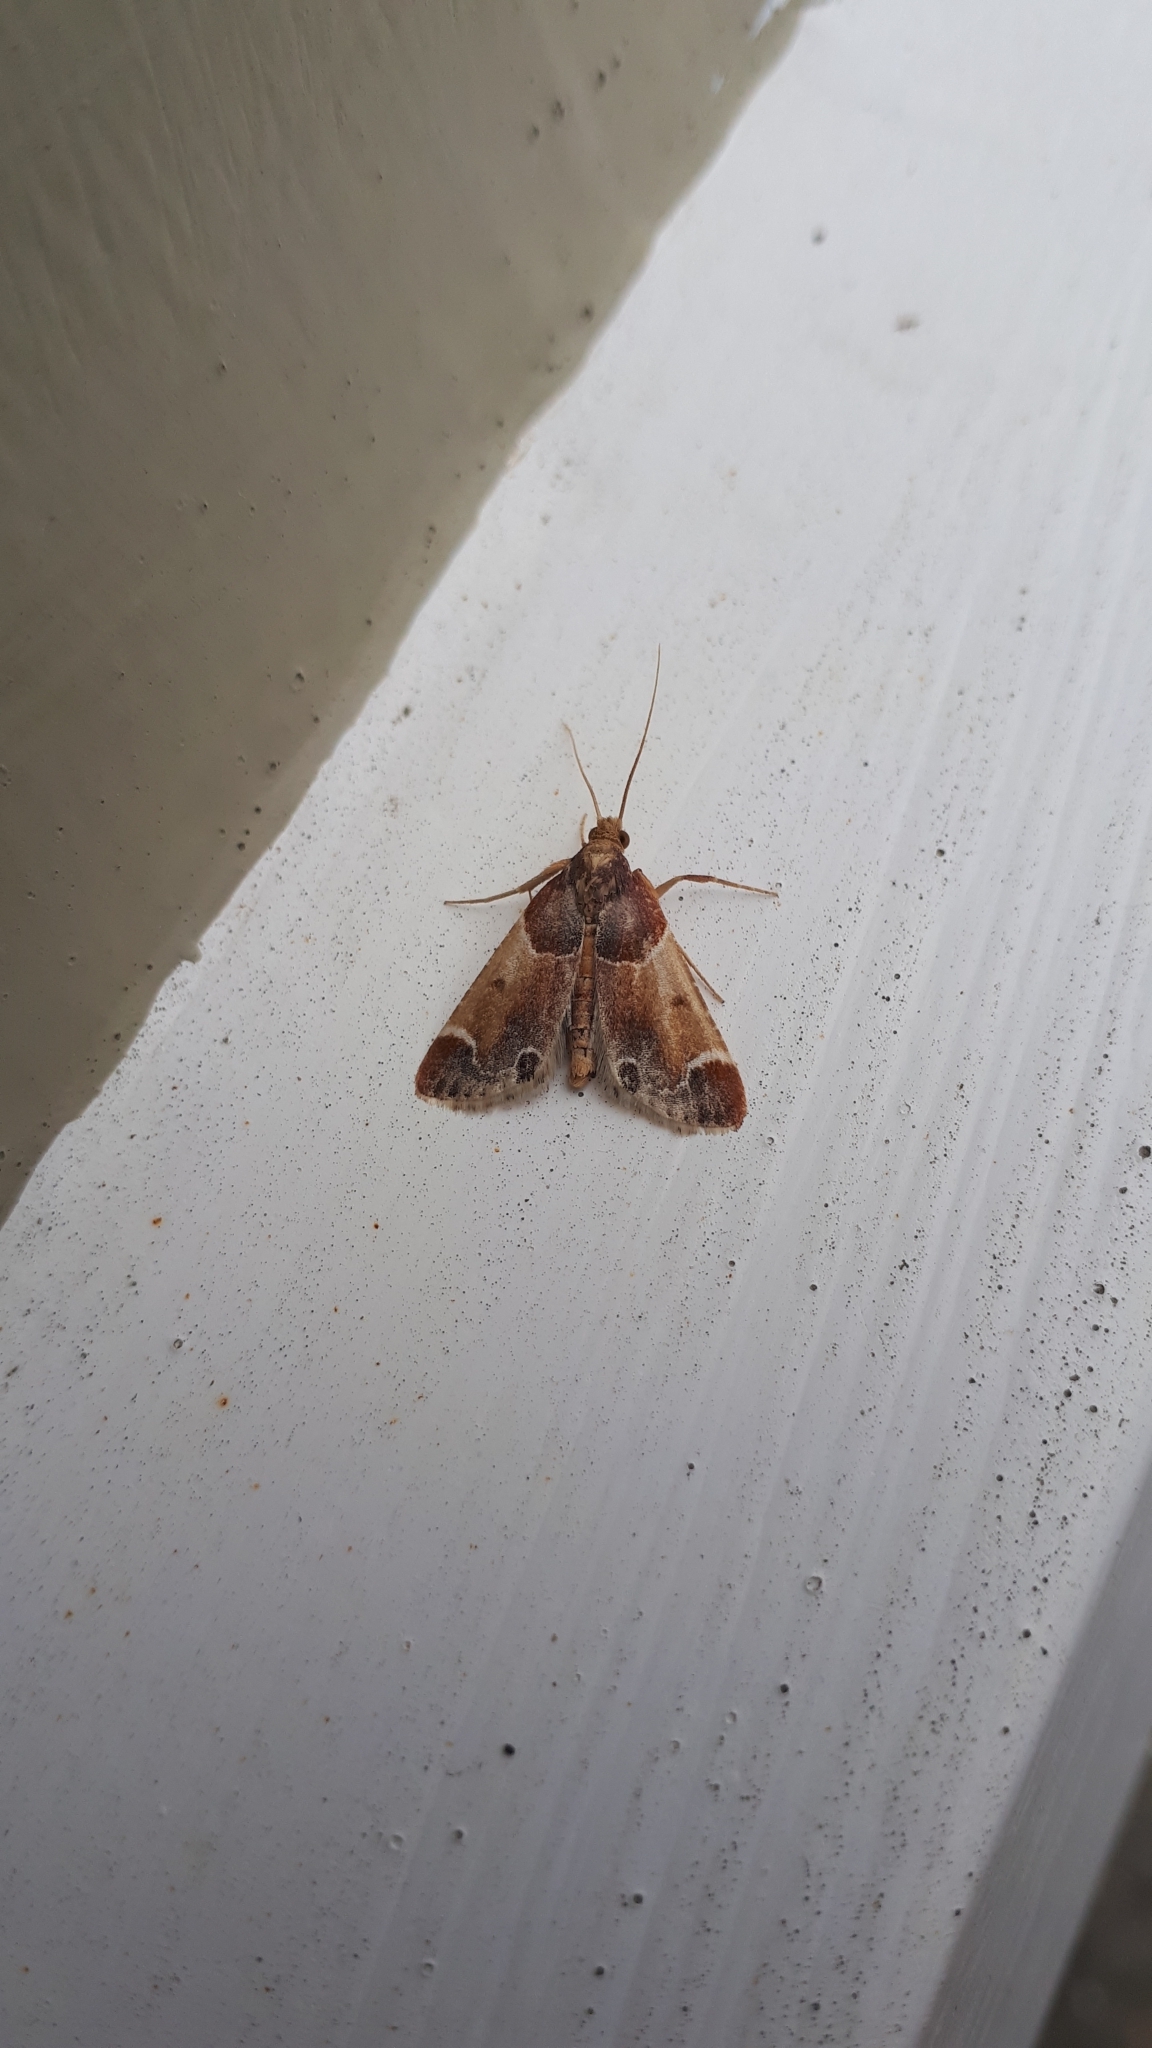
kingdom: Animalia
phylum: Arthropoda
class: Insecta
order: Lepidoptera
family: Pyralidae
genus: Pyralis
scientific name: Pyralis farinalis
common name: Meal moth
